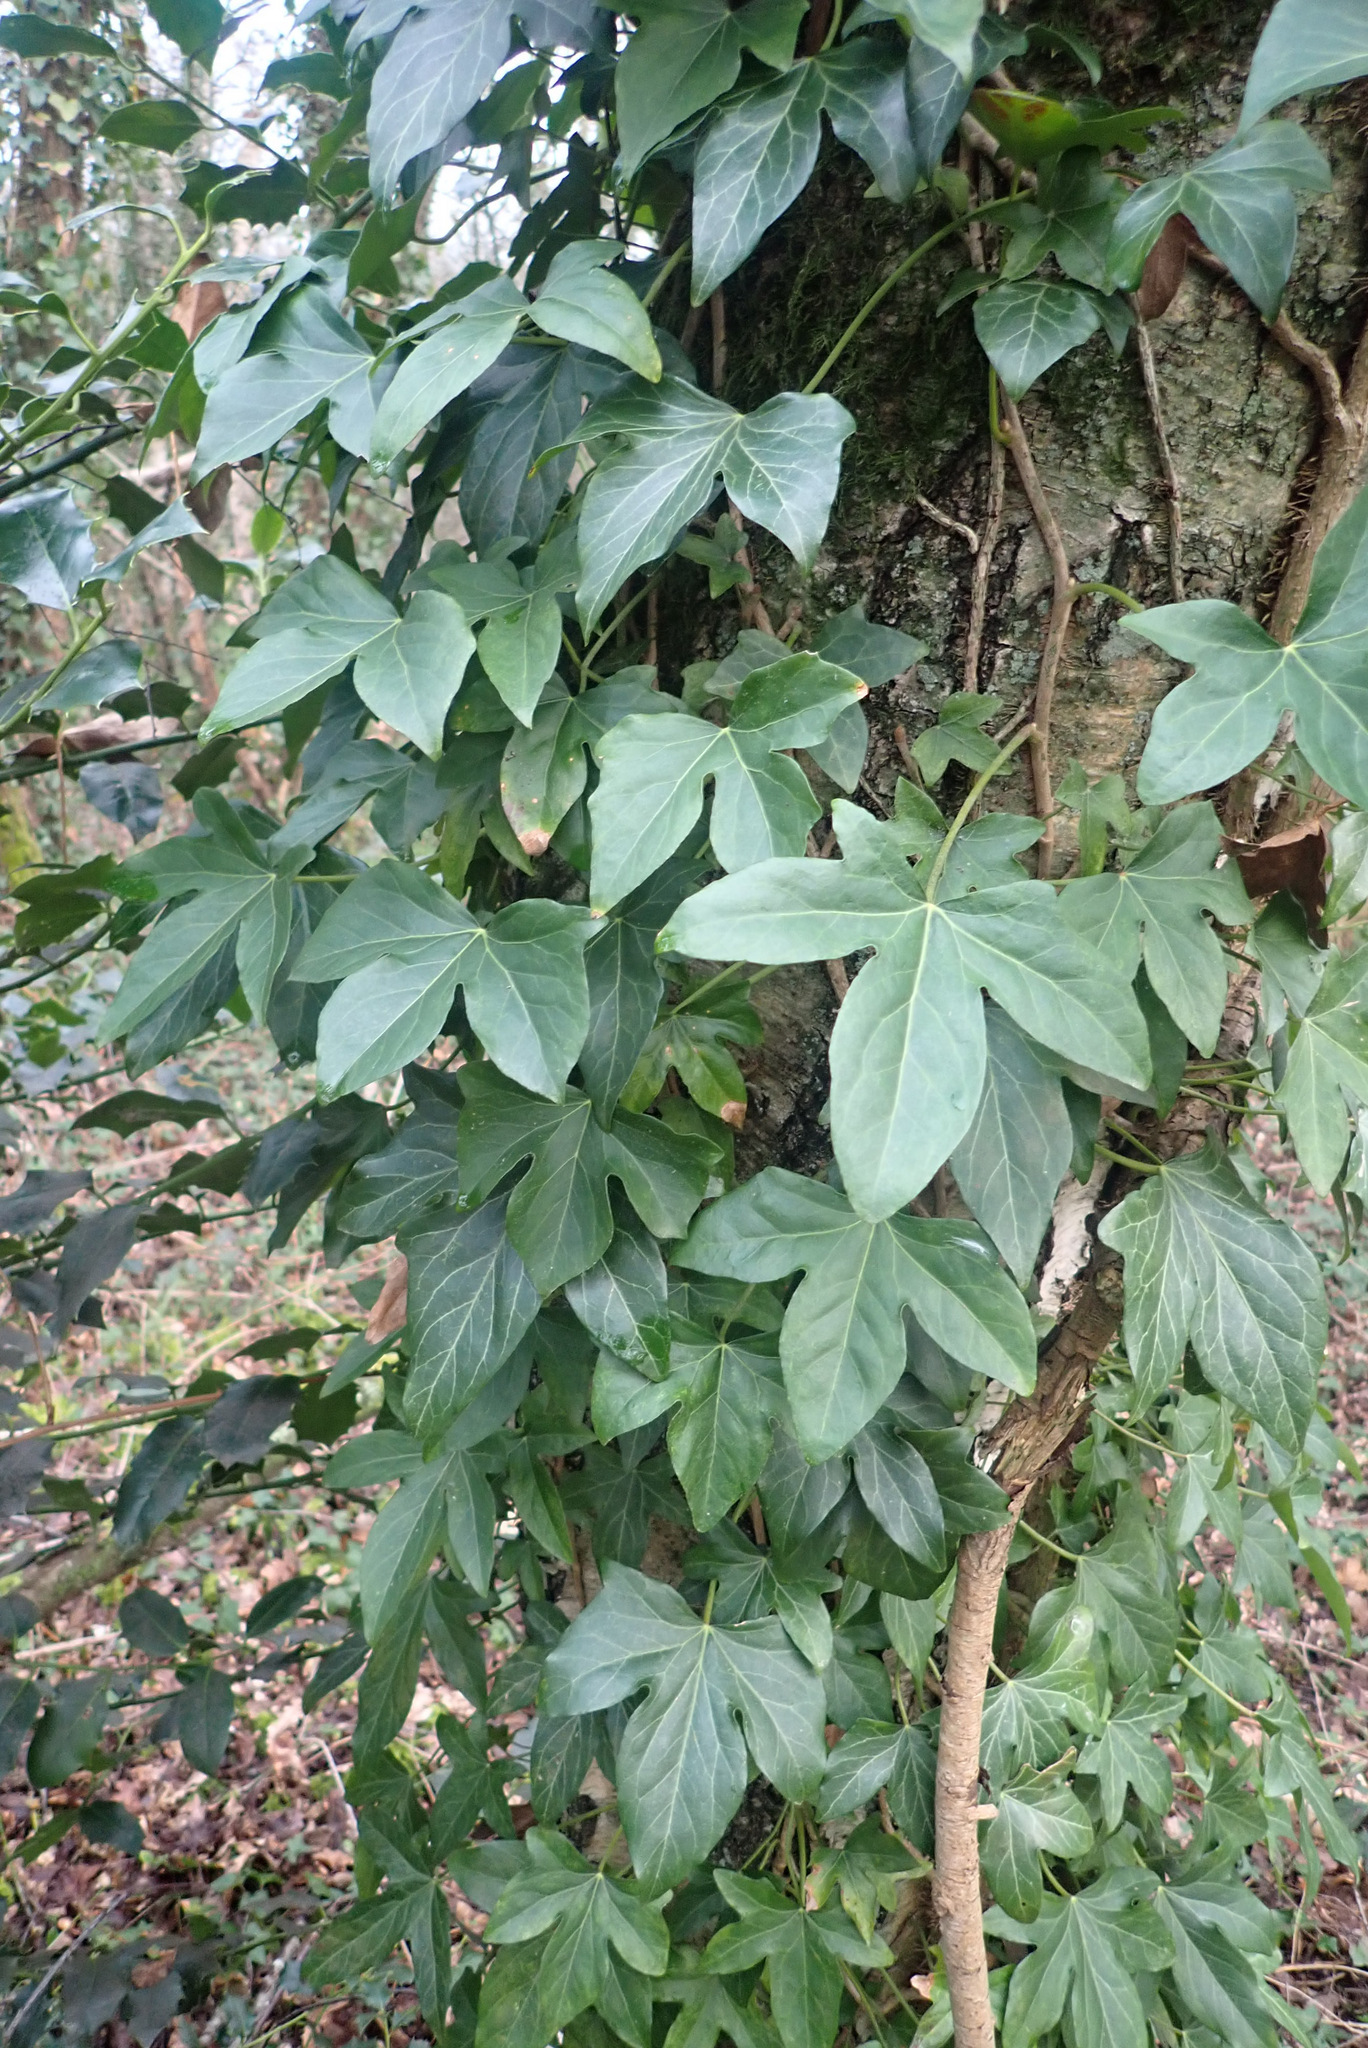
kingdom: Plantae
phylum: Tracheophyta
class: Magnoliopsida
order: Apiales
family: Araliaceae
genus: Hedera
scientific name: Hedera hibernica
